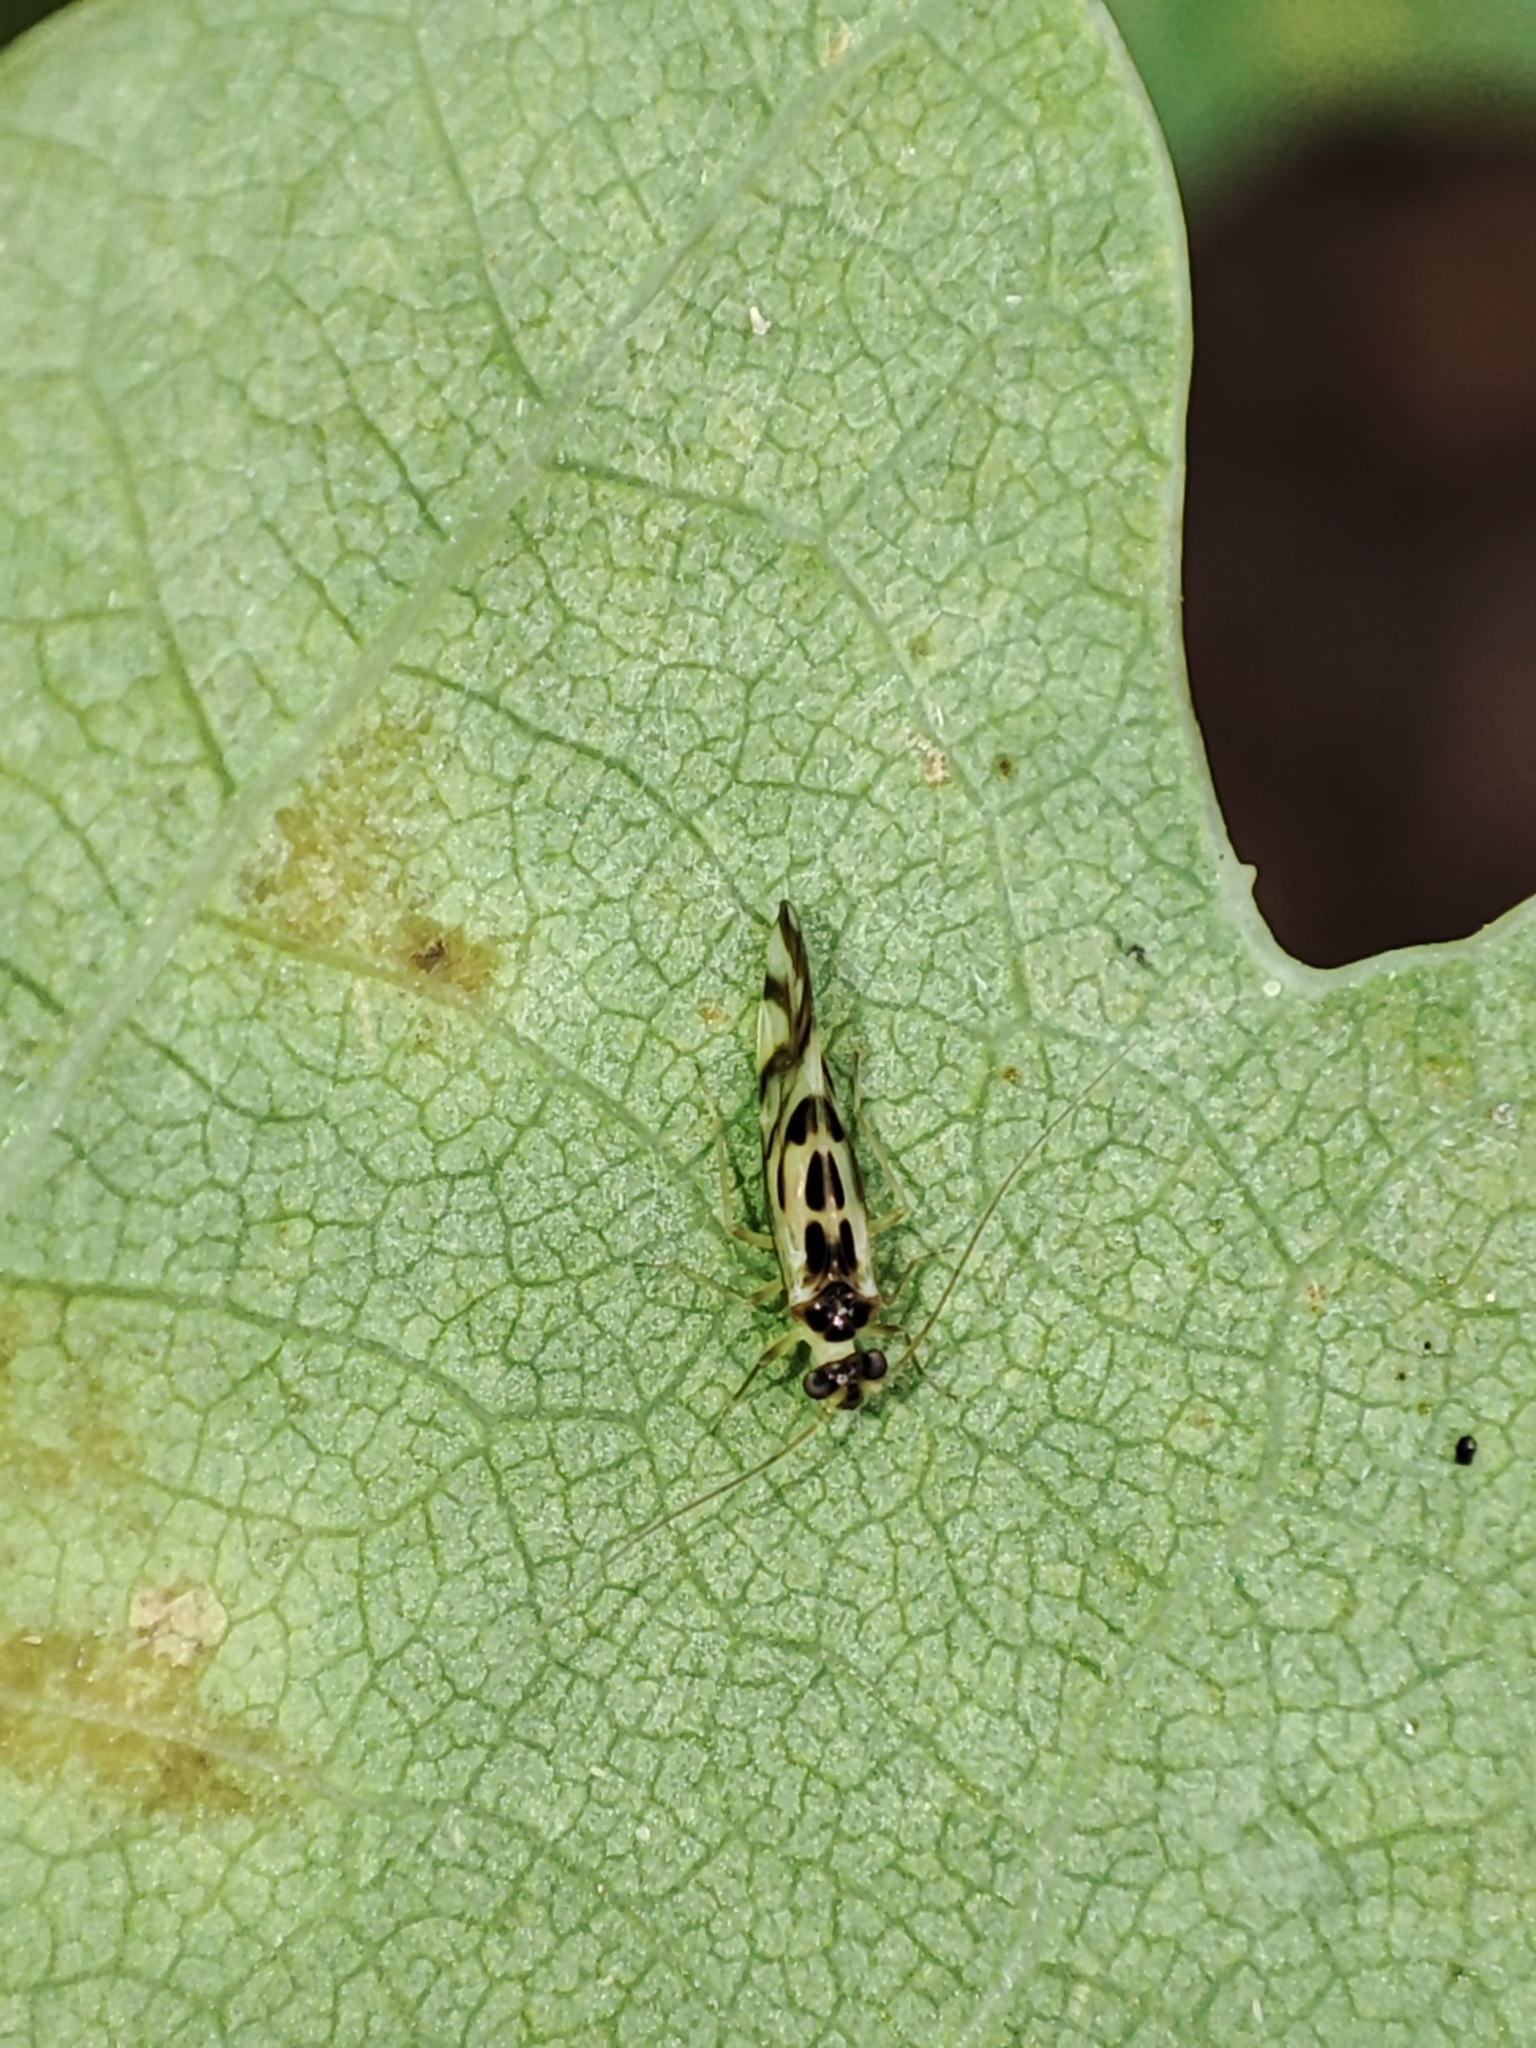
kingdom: Animalia
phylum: Arthropoda
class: Insecta
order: Psocodea
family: Stenopsocidae
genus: Graphopsocus
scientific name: Graphopsocus cruciatus
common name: Lizard bark louse
